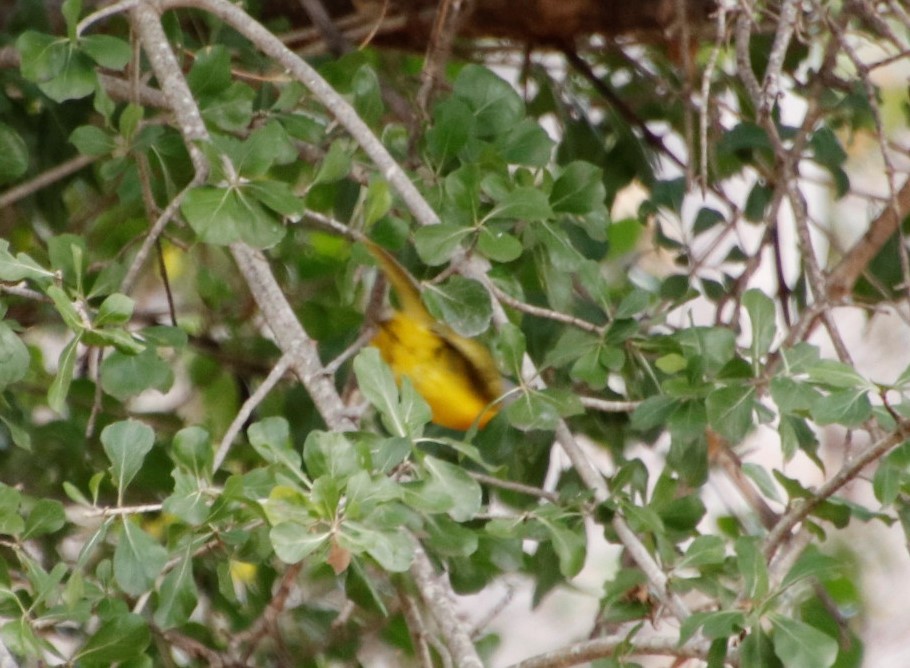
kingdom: Animalia
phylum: Chordata
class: Aves
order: Passeriformes
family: Malaconotidae
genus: Malaconotus
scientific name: Malaconotus blanchoti
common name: Grey-headed bushshrike
